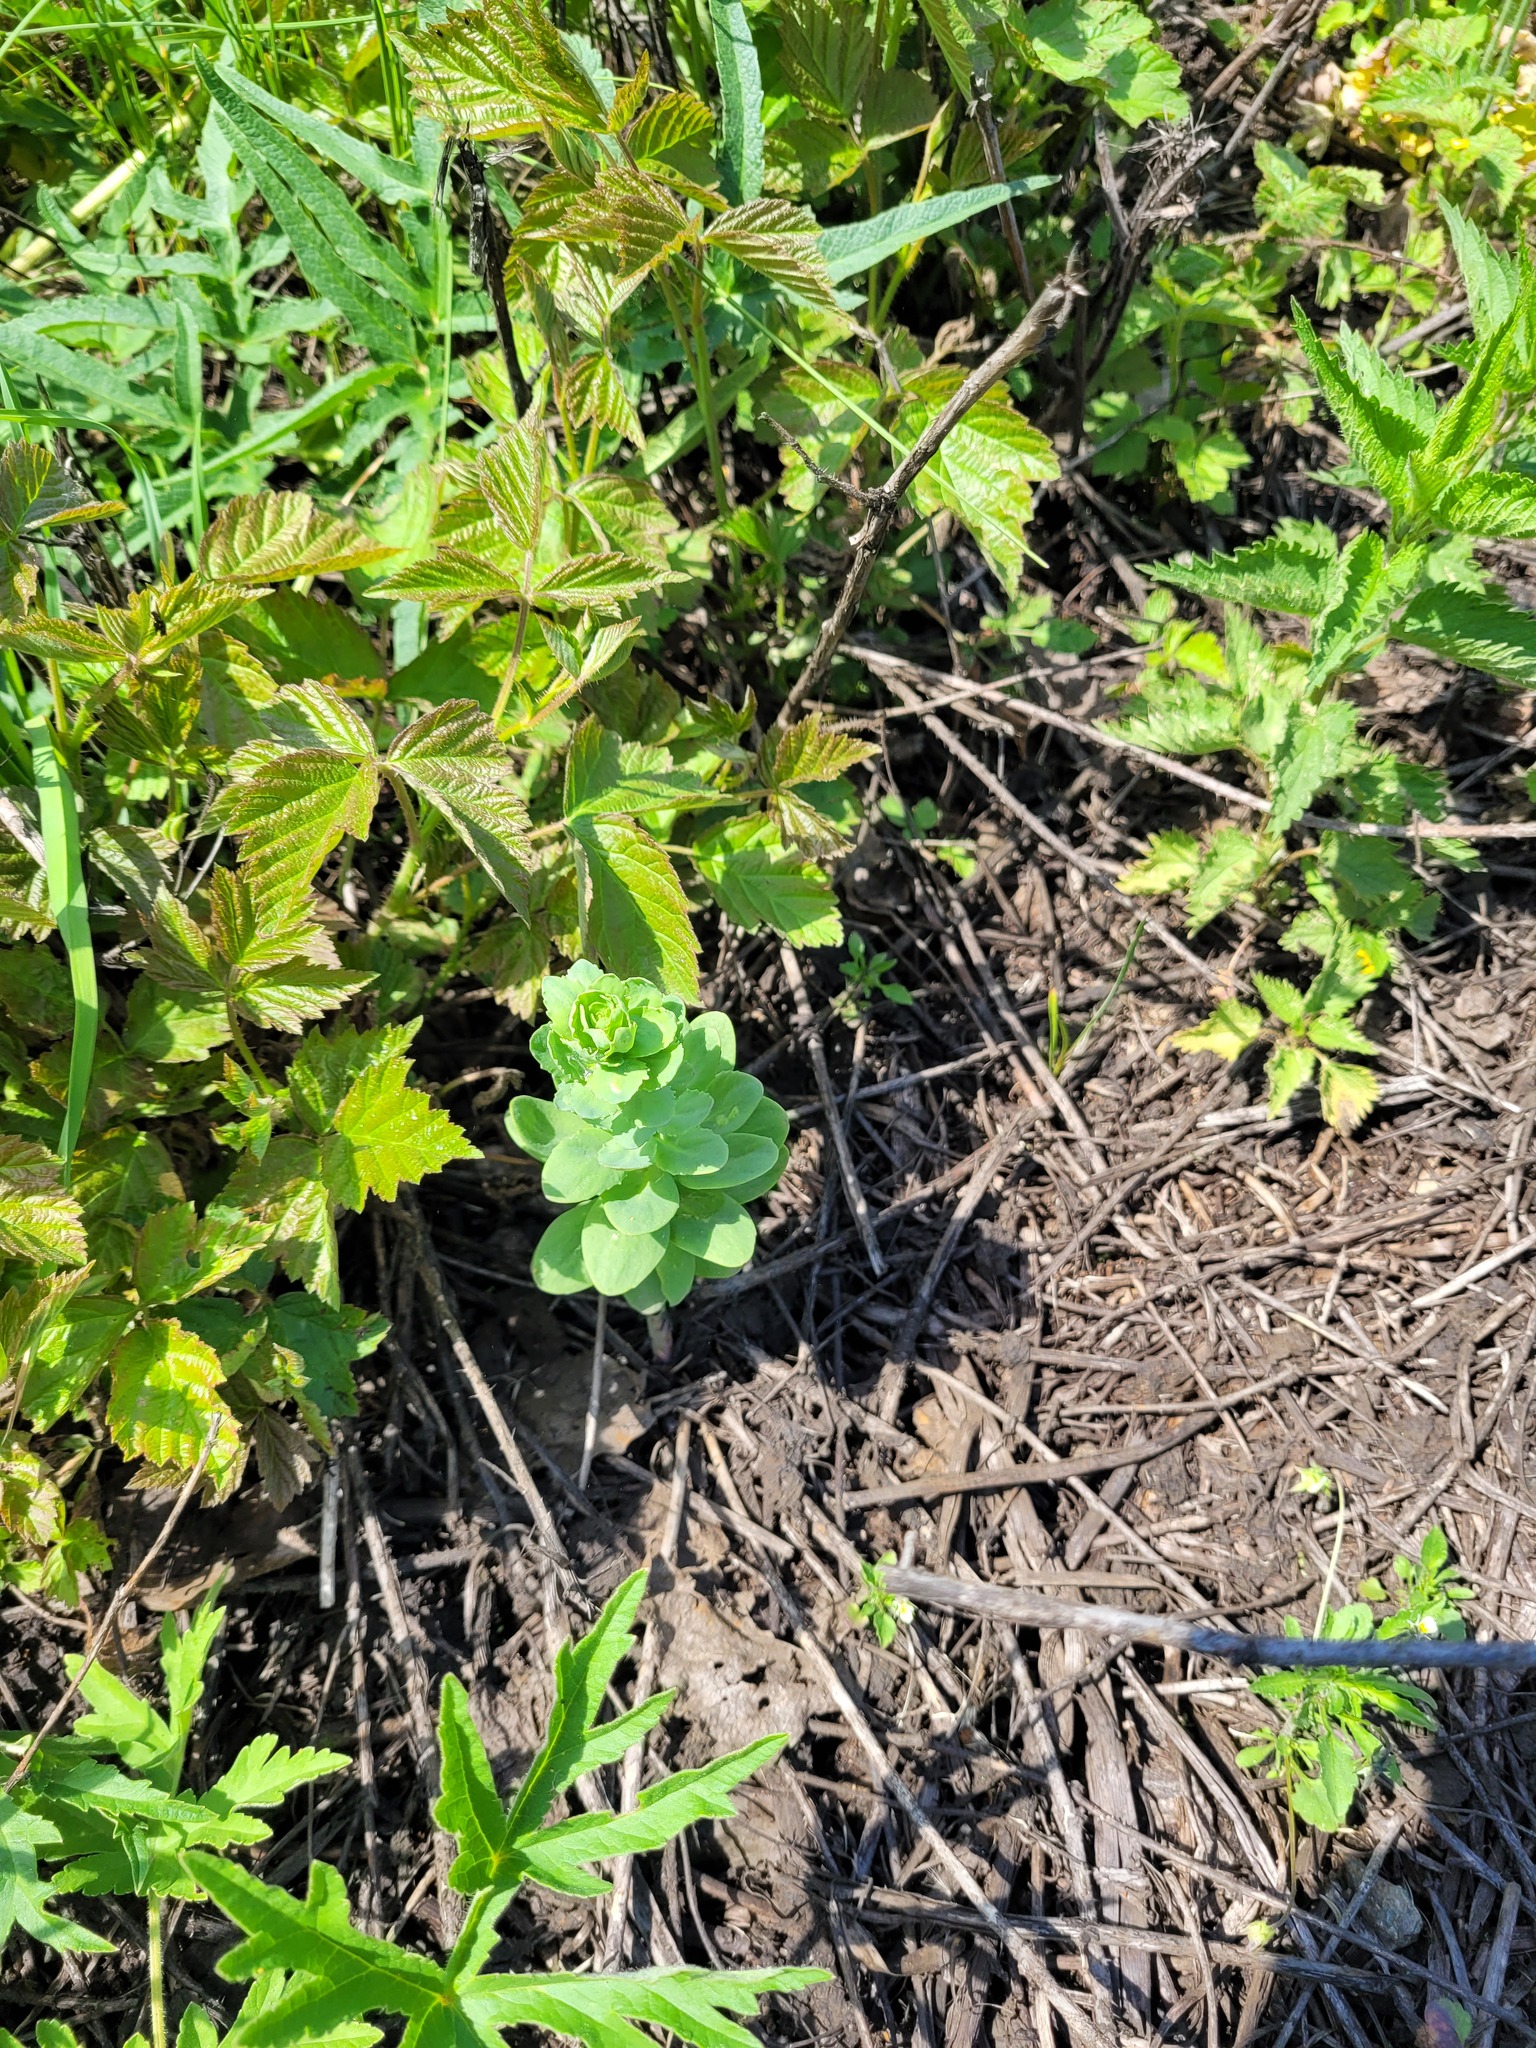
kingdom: Plantae
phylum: Tracheophyta
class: Magnoliopsida
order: Saxifragales
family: Crassulaceae
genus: Hylotelephium
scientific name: Hylotelephium telephium
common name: Live-forever
